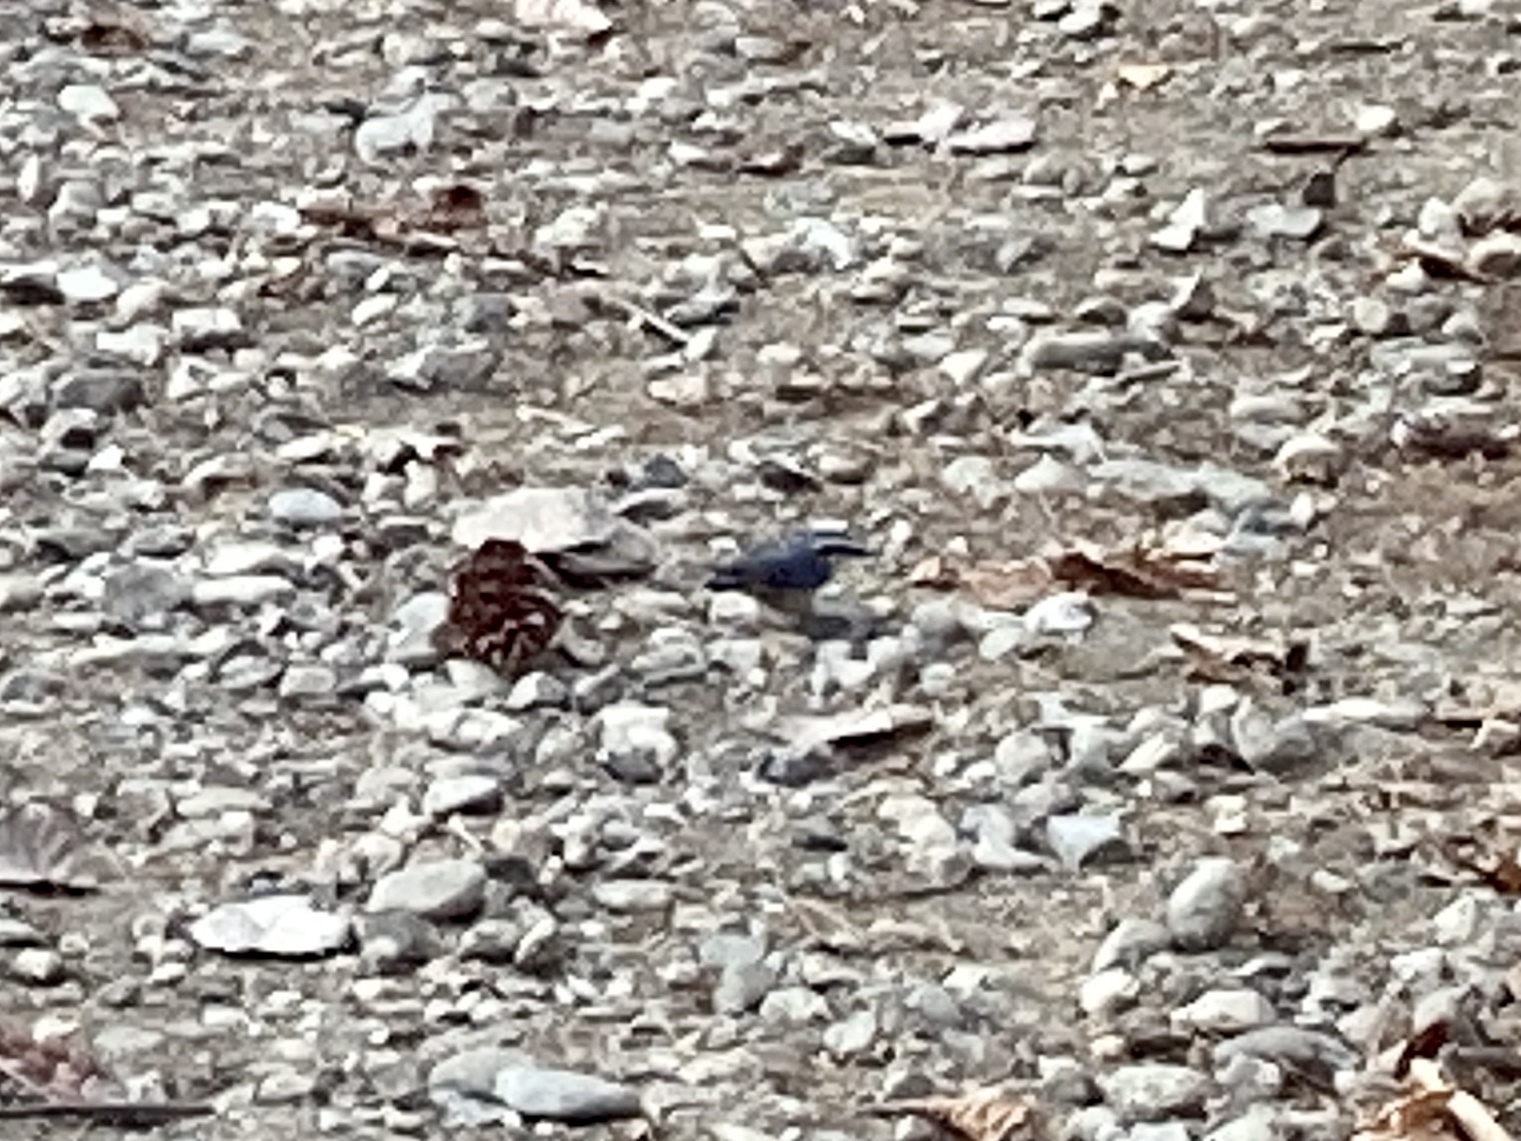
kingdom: Animalia
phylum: Chordata
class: Aves
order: Passeriformes
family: Sittidae
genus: Sitta
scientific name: Sitta canadensis
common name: Red-breasted nuthatch
